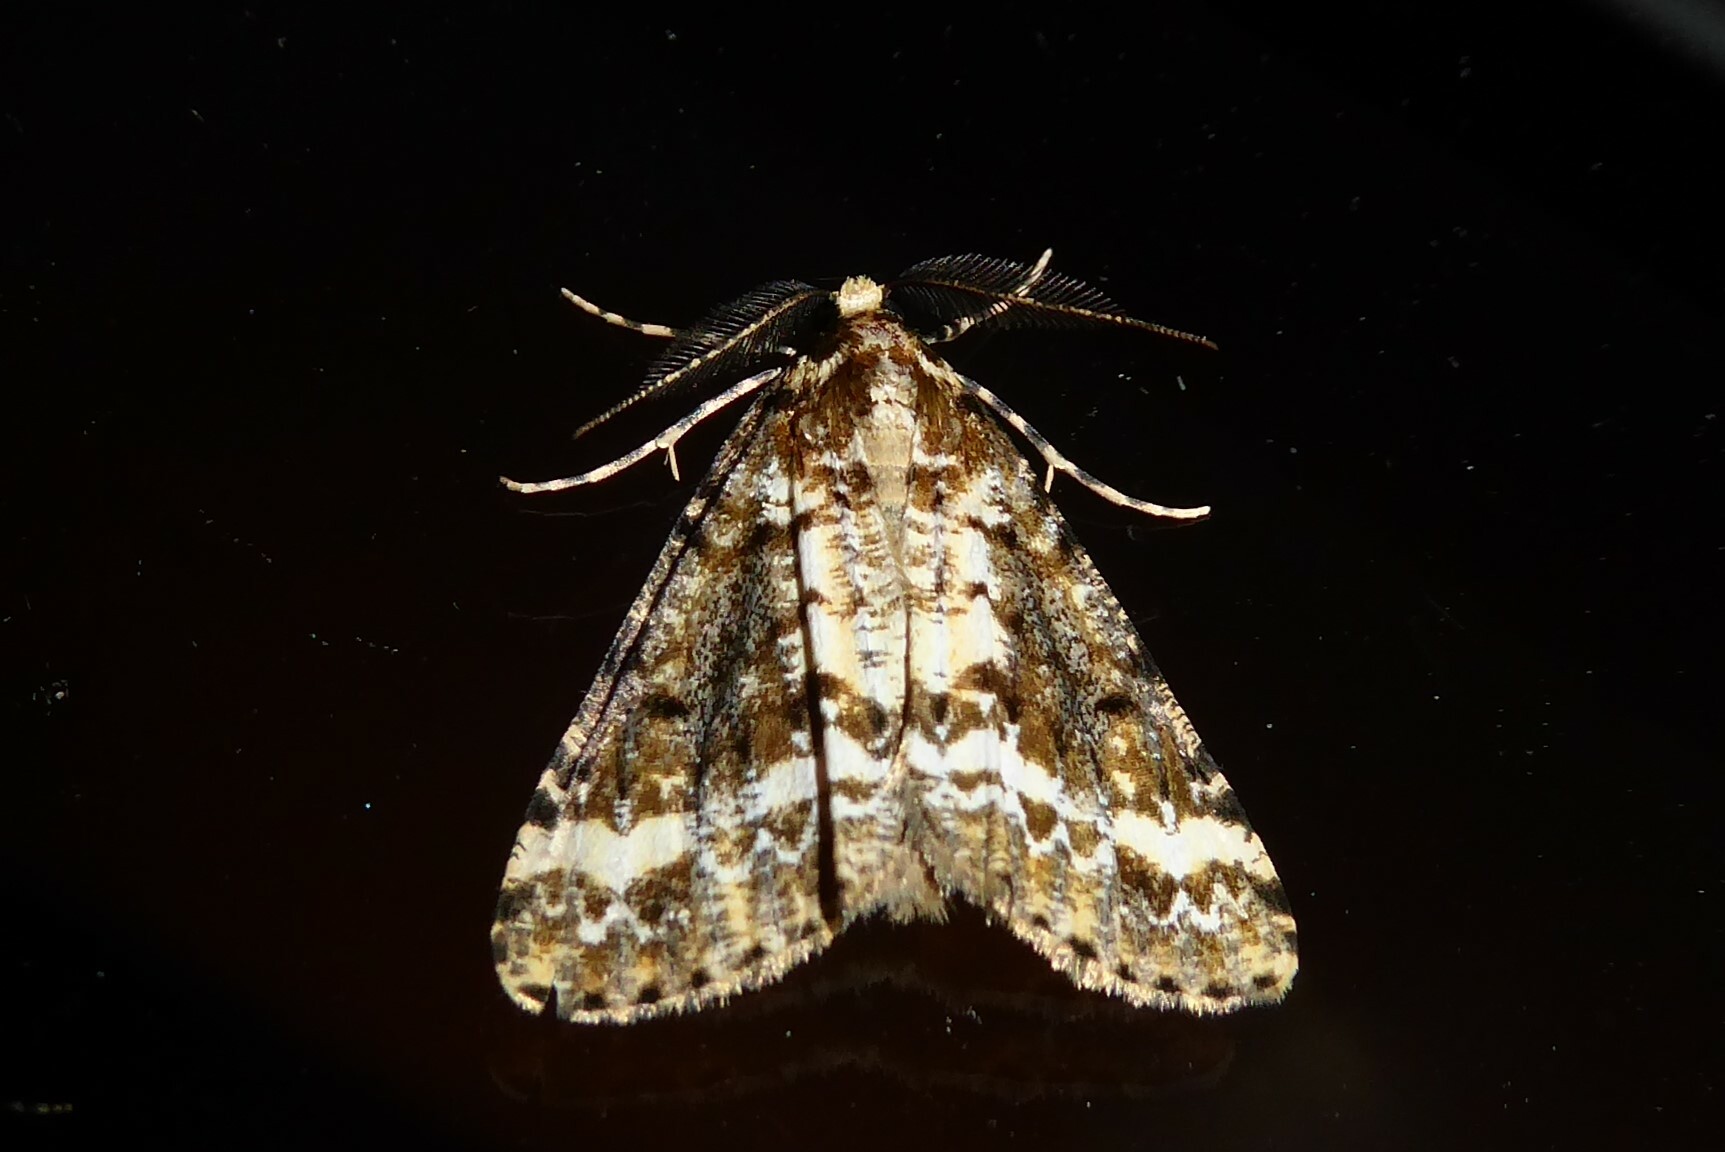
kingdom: Animalia
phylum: Arthropoda
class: Insecta
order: Lepidoptera
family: Geometridae
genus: Pseudocoremia
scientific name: Pseudocoremia leucelaea
